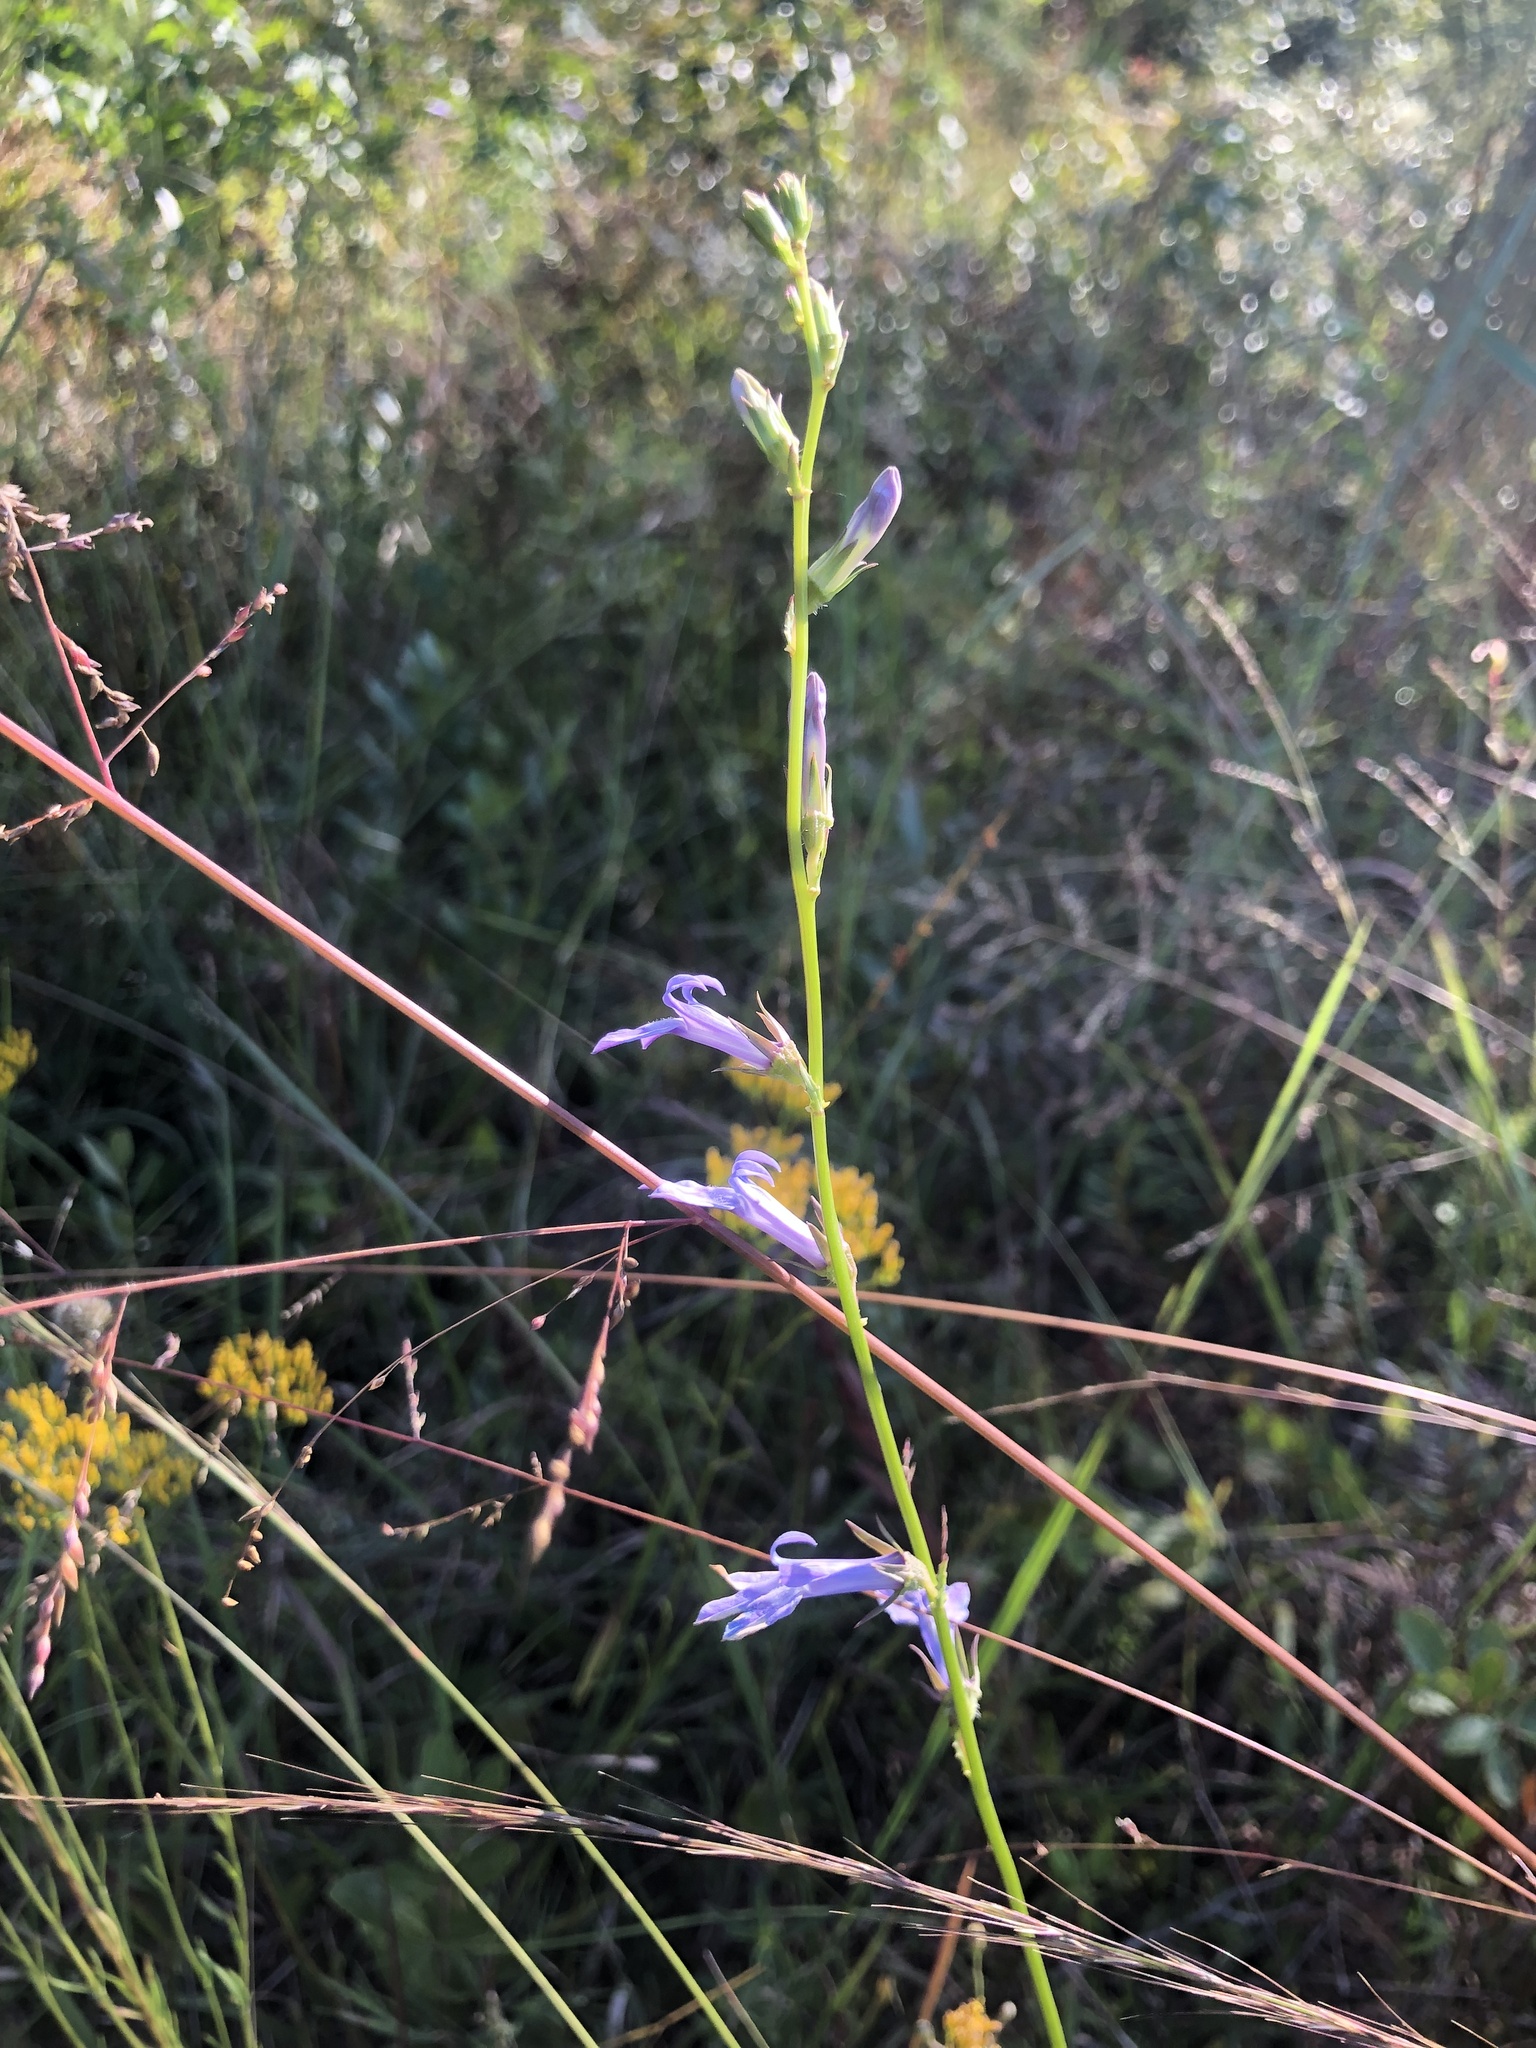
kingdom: Plantae
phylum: Tracheophyta
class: Magnoliopsida
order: Asterales
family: Campanulaceae
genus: Lobelia
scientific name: Lobelia glandulosa
